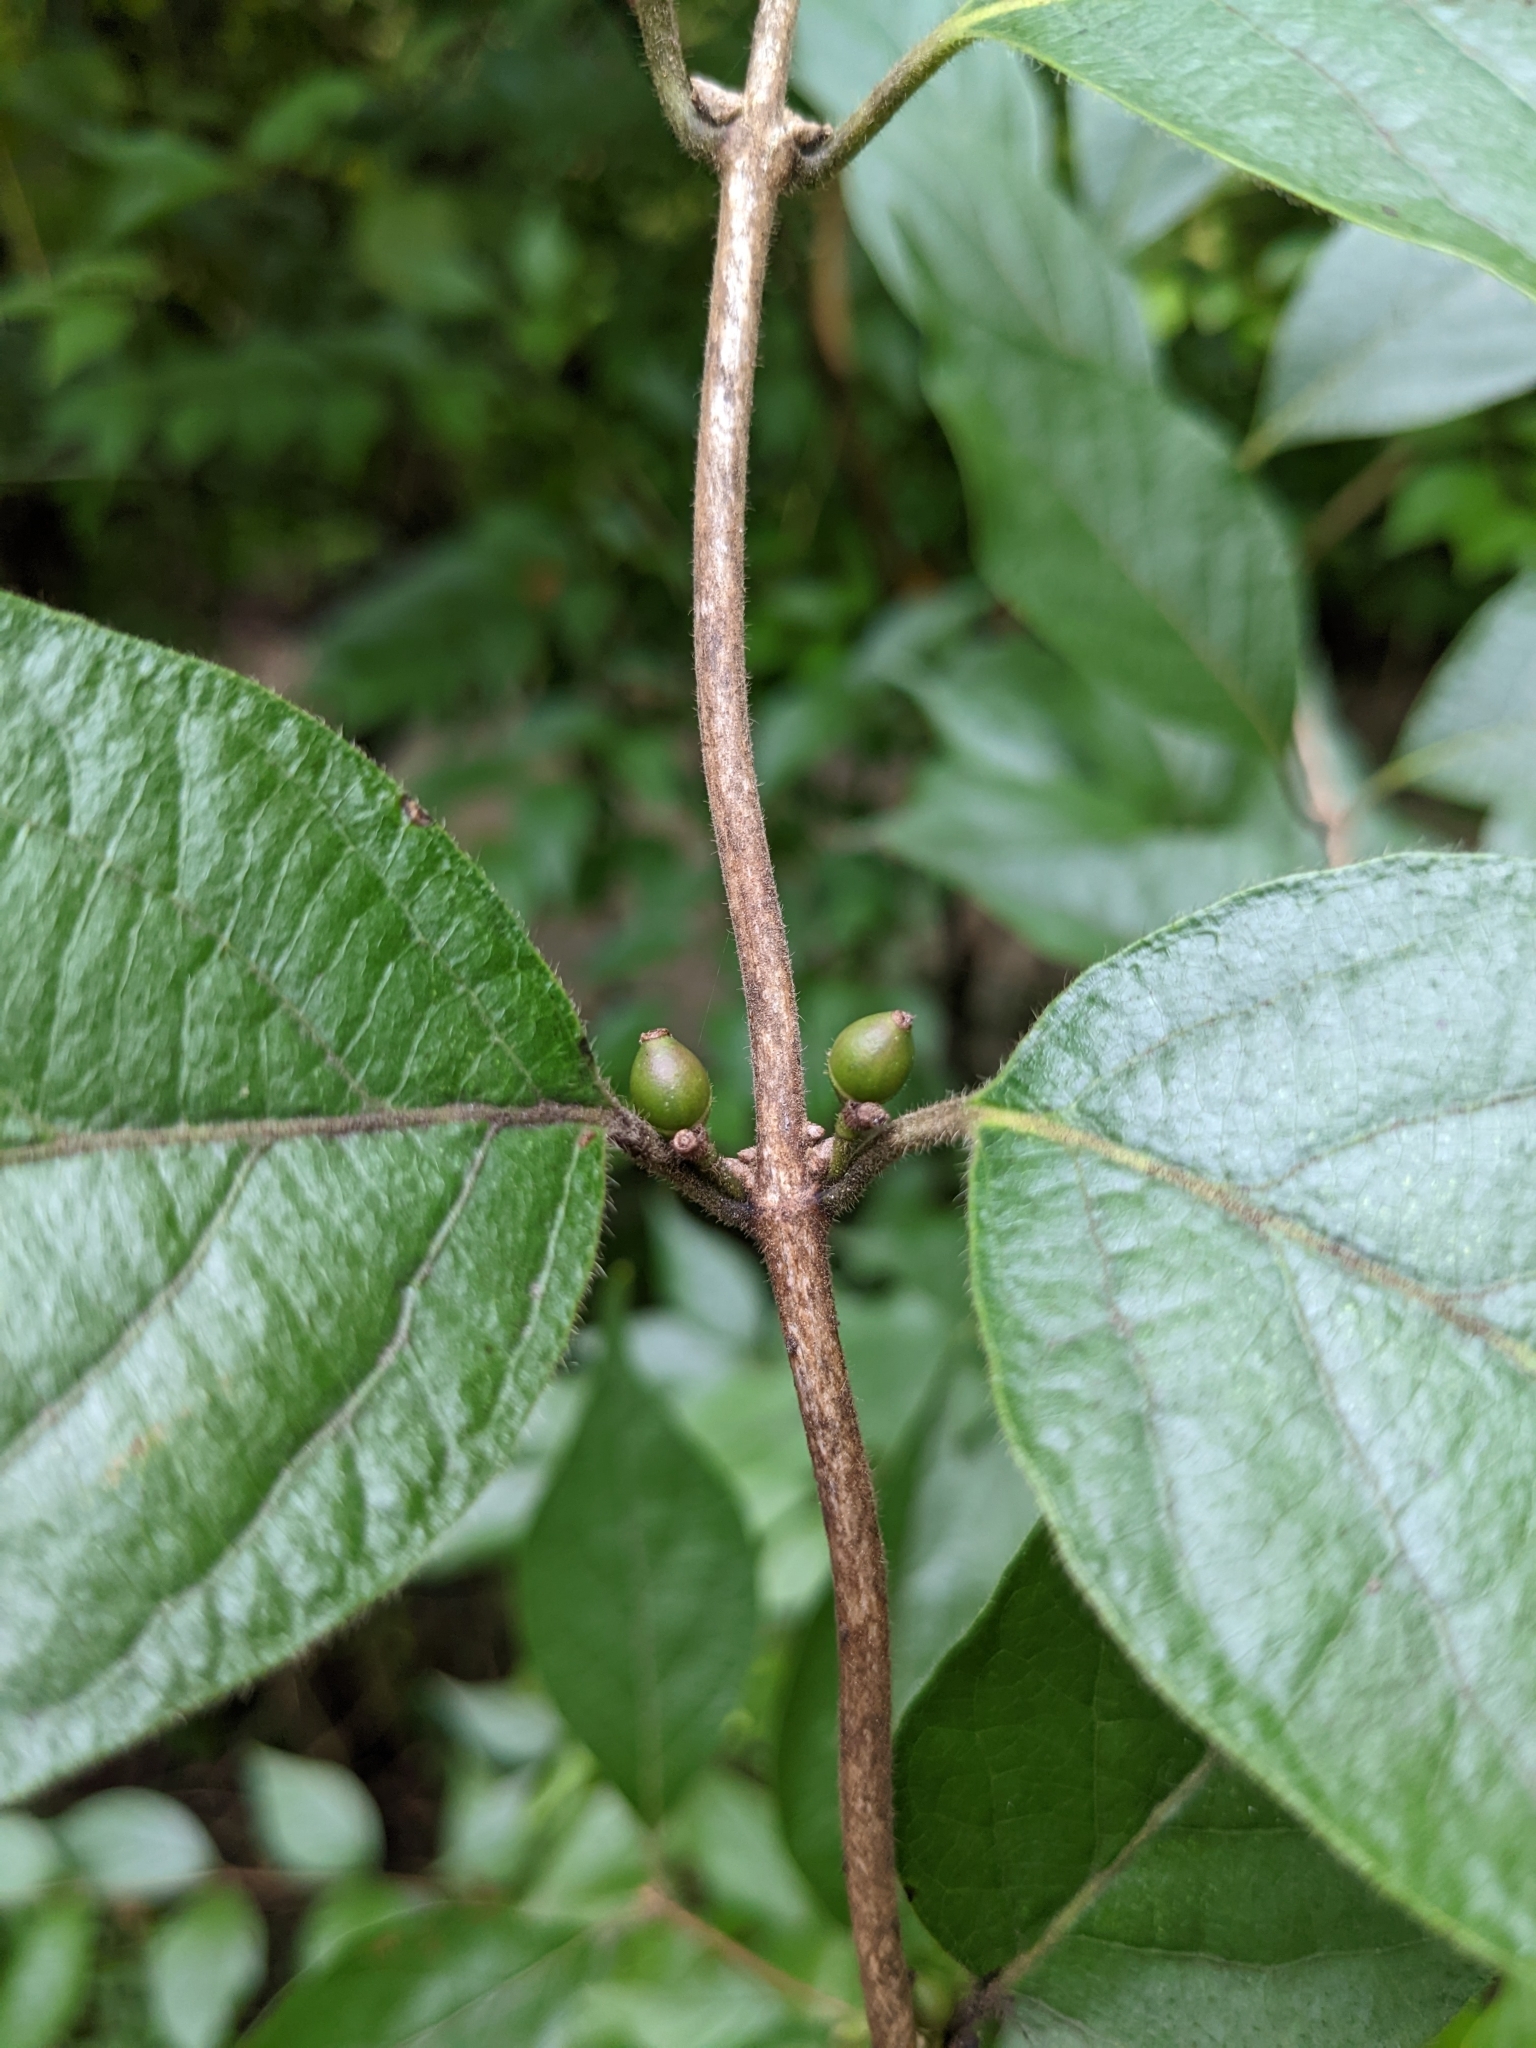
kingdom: Plantae
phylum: Tracheophyta
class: Magnoliopsida
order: Dipsacales
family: Caprifoliaceae
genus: Lonicera
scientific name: Lonicera maackii
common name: Amur honeysuckle
